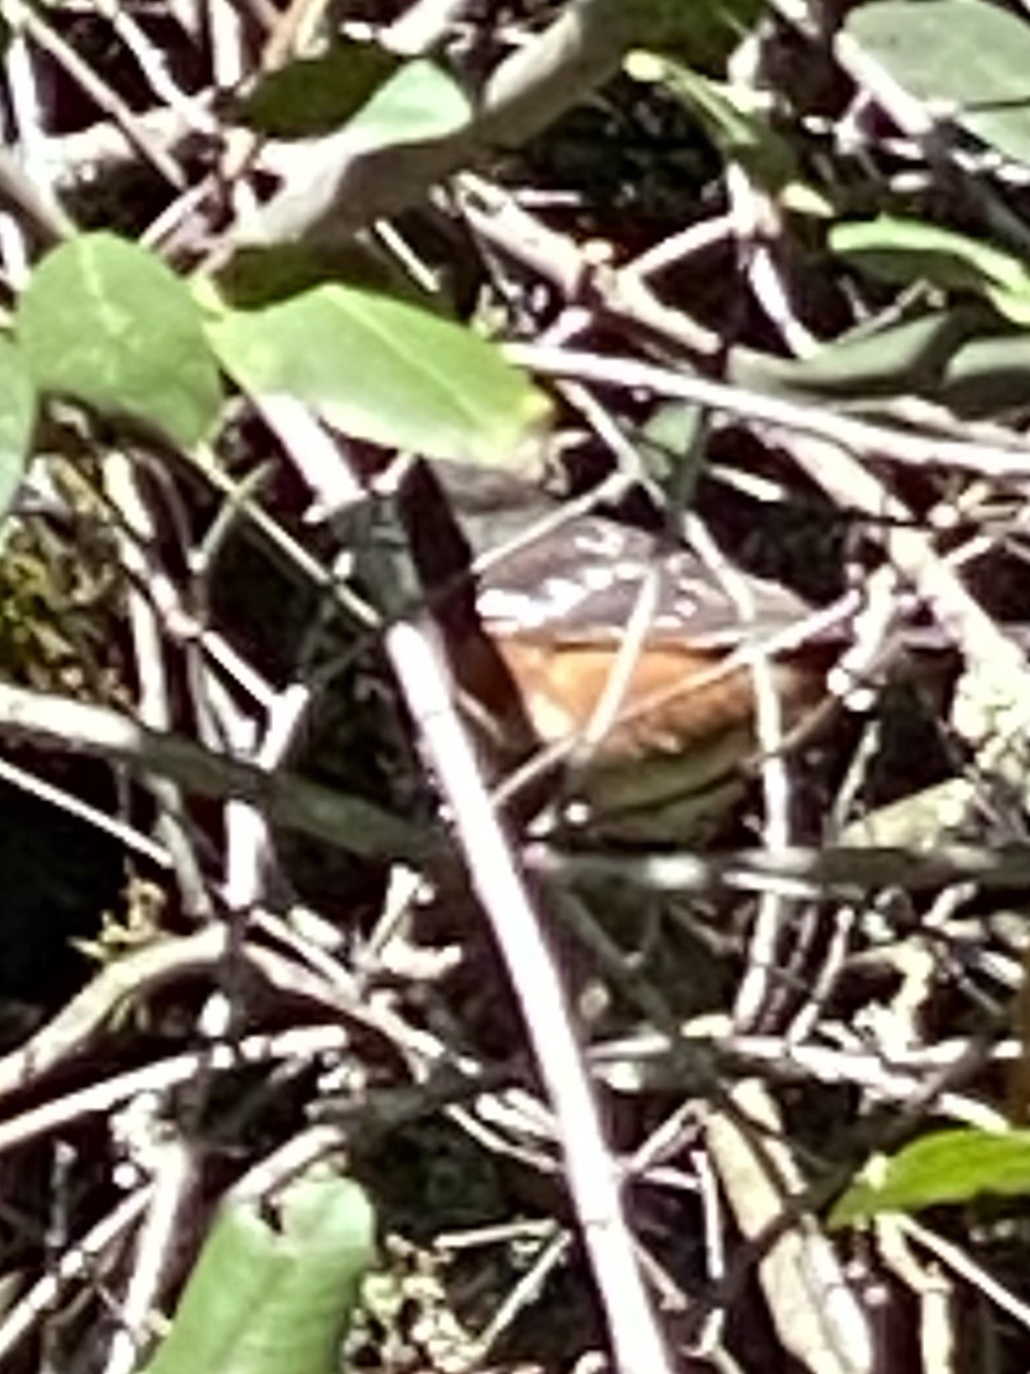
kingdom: Animalia
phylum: Chordata
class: Aves
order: Passeriformes
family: Passerellidae
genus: Pipilo
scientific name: Pipilo maculatus
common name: Spotted towhee
